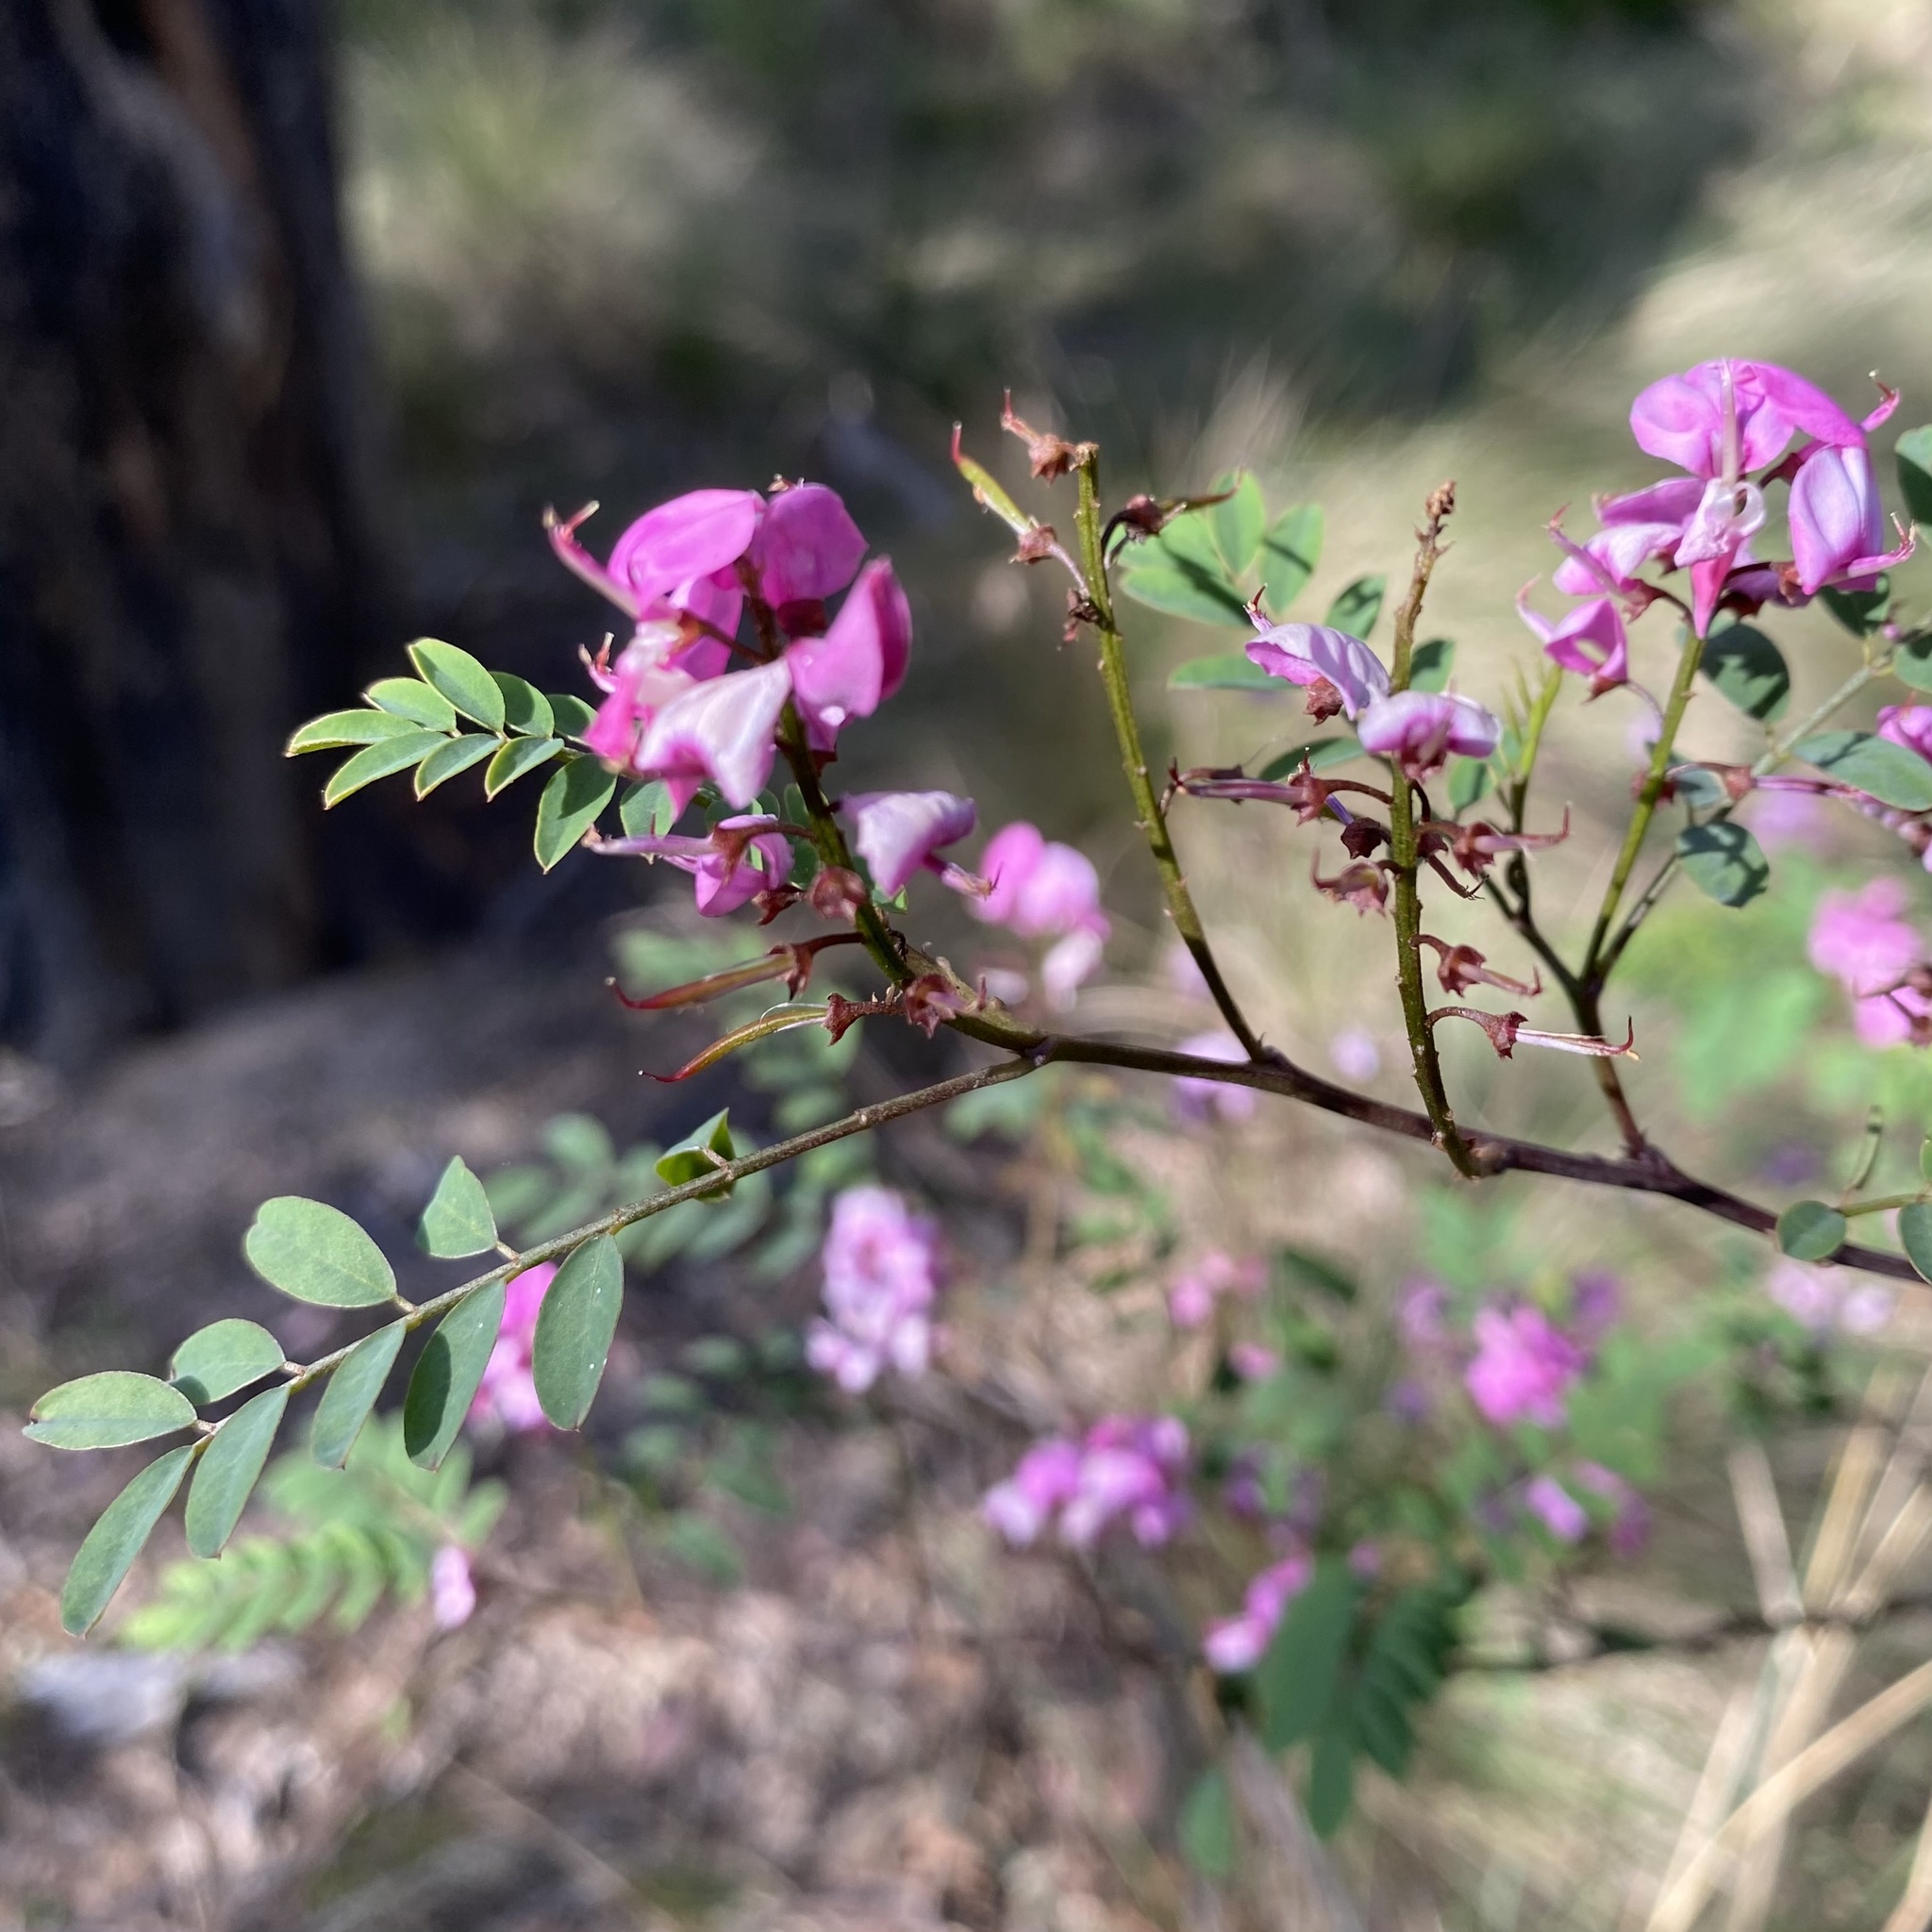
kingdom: Plantae
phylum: Tracheophyta
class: Magnoliopsida
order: Fabales
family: Fabaceae
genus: Indigofera
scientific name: Indigofera australis
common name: Australian indigo
